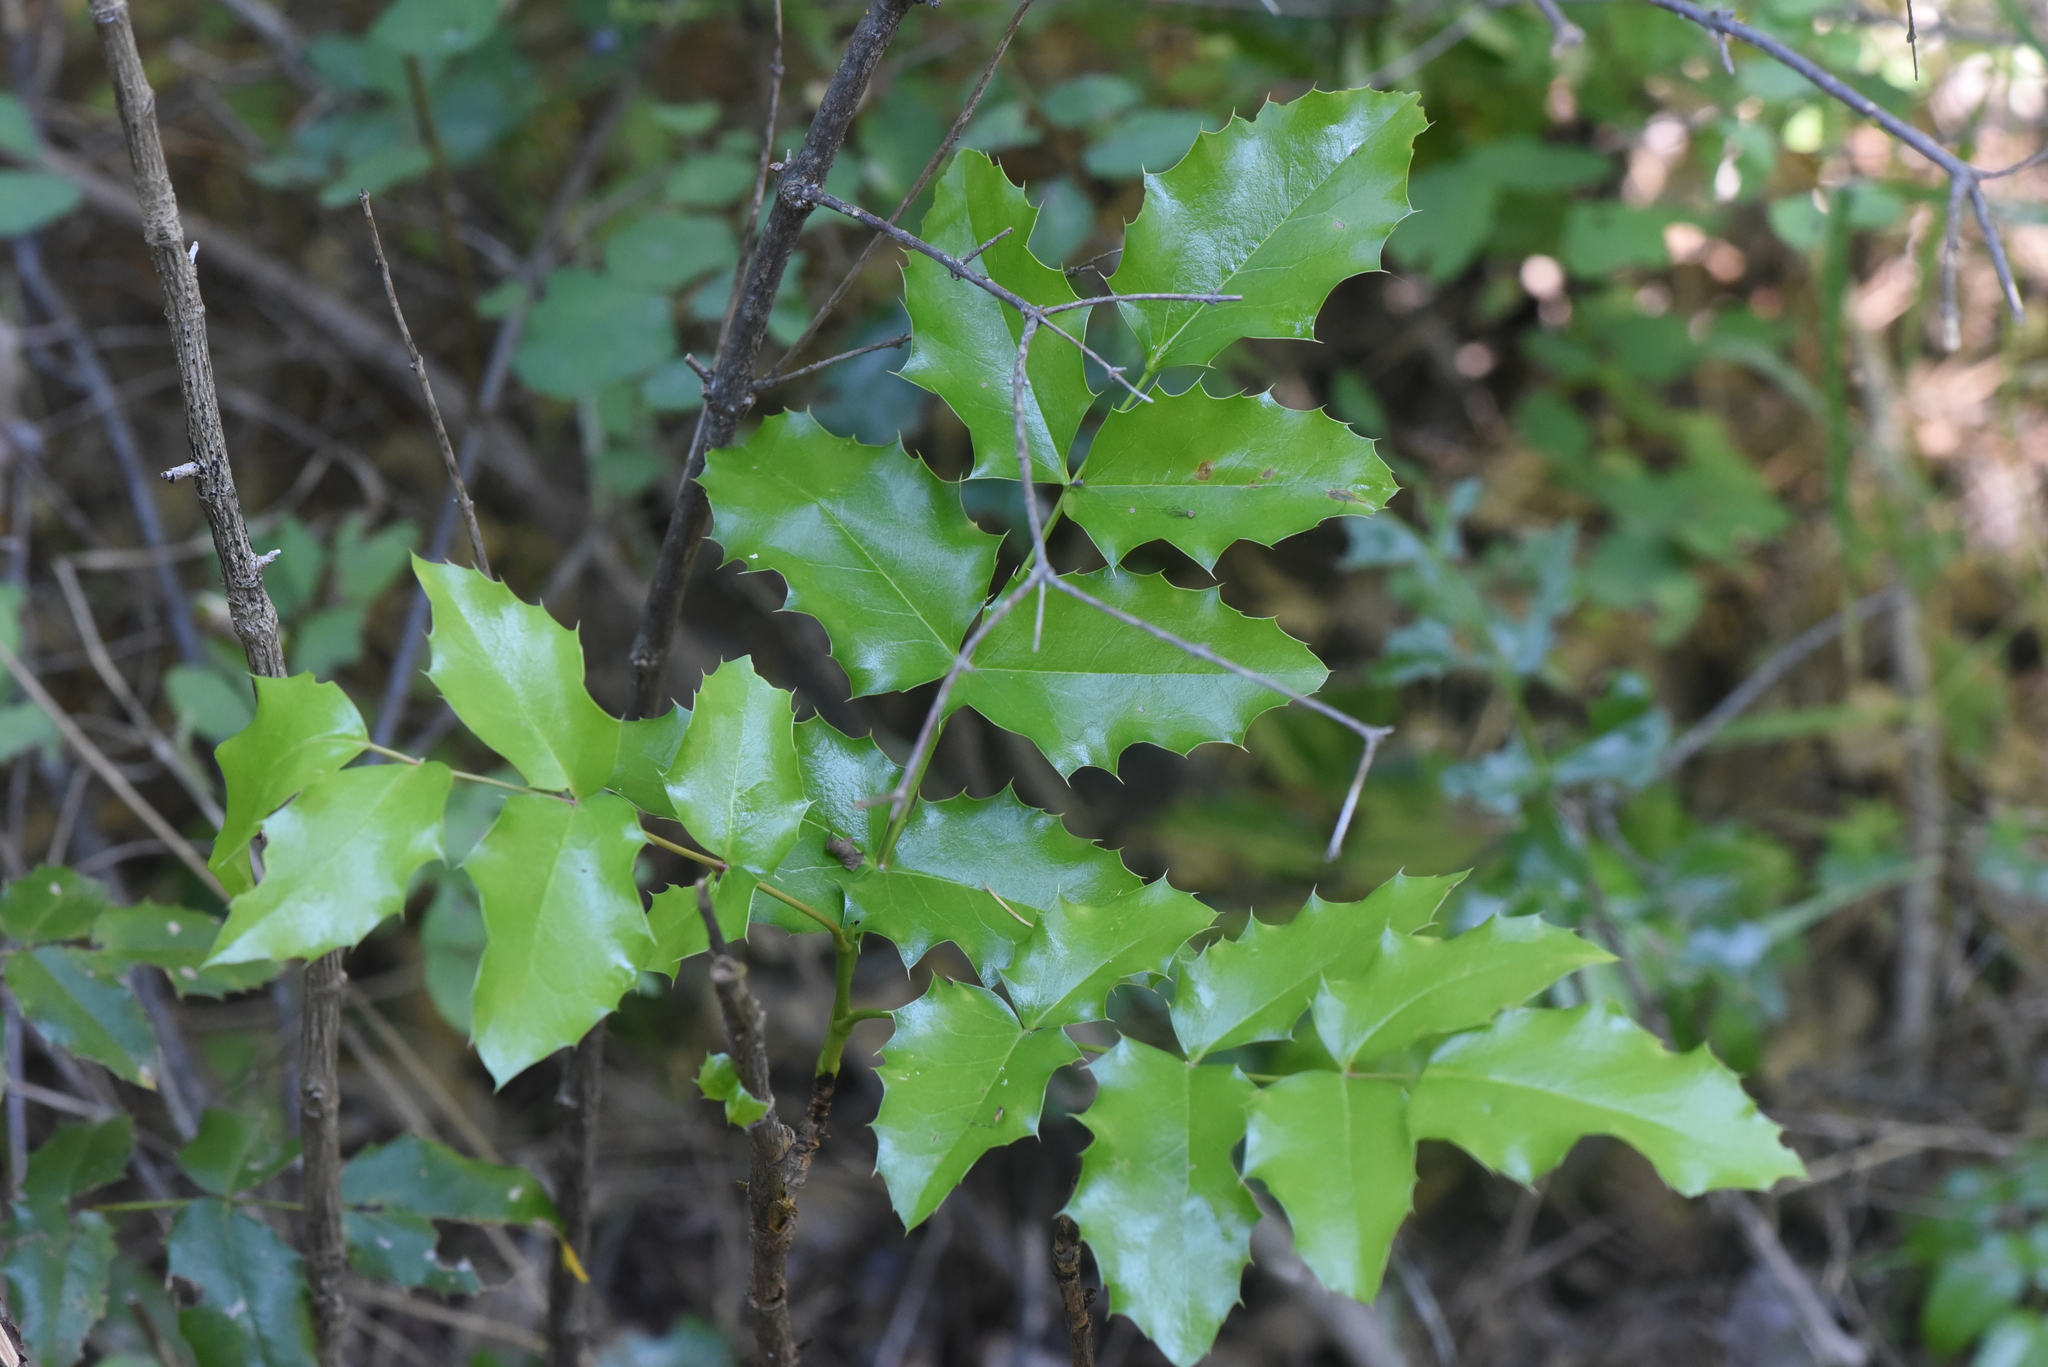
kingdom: Plantae
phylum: Tracheophyta
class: Magnoliopsida
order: Ranunculales
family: Berberidaceae
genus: Mahonia
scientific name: Mahonia aquifolium
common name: Oregon-grape
